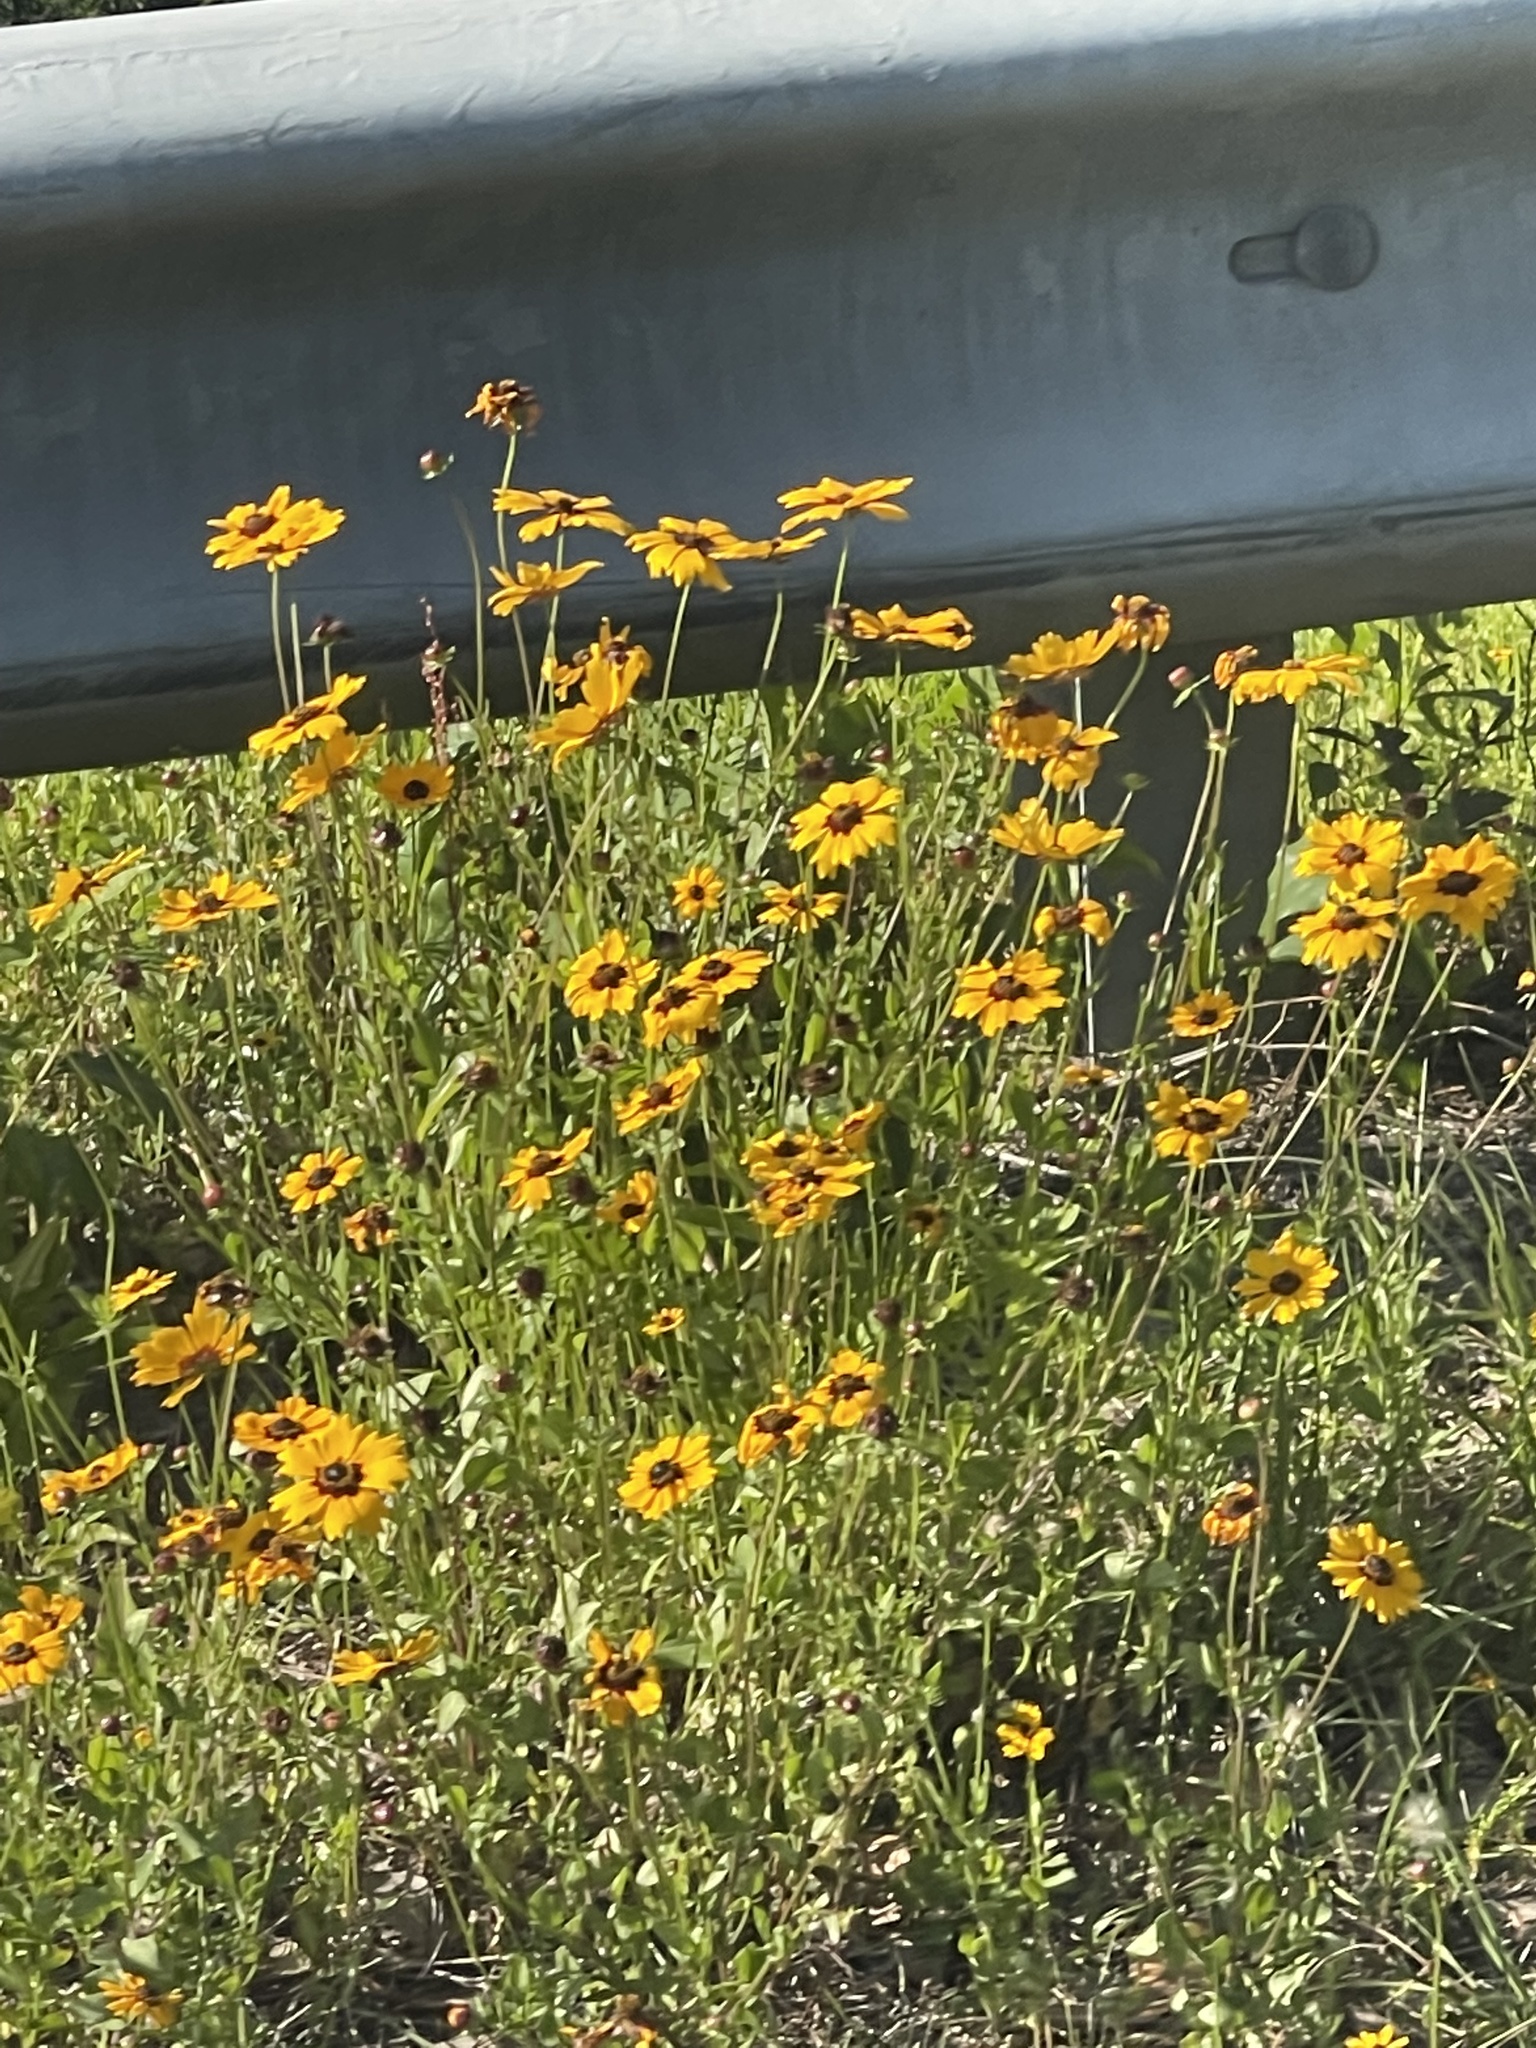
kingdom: Plantae
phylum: Tracheophyta
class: Magnoliopsida
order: Asterales
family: Asteraceae
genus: Coreopsis
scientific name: Coreopsis basalis
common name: Golden-mane coreopsis
